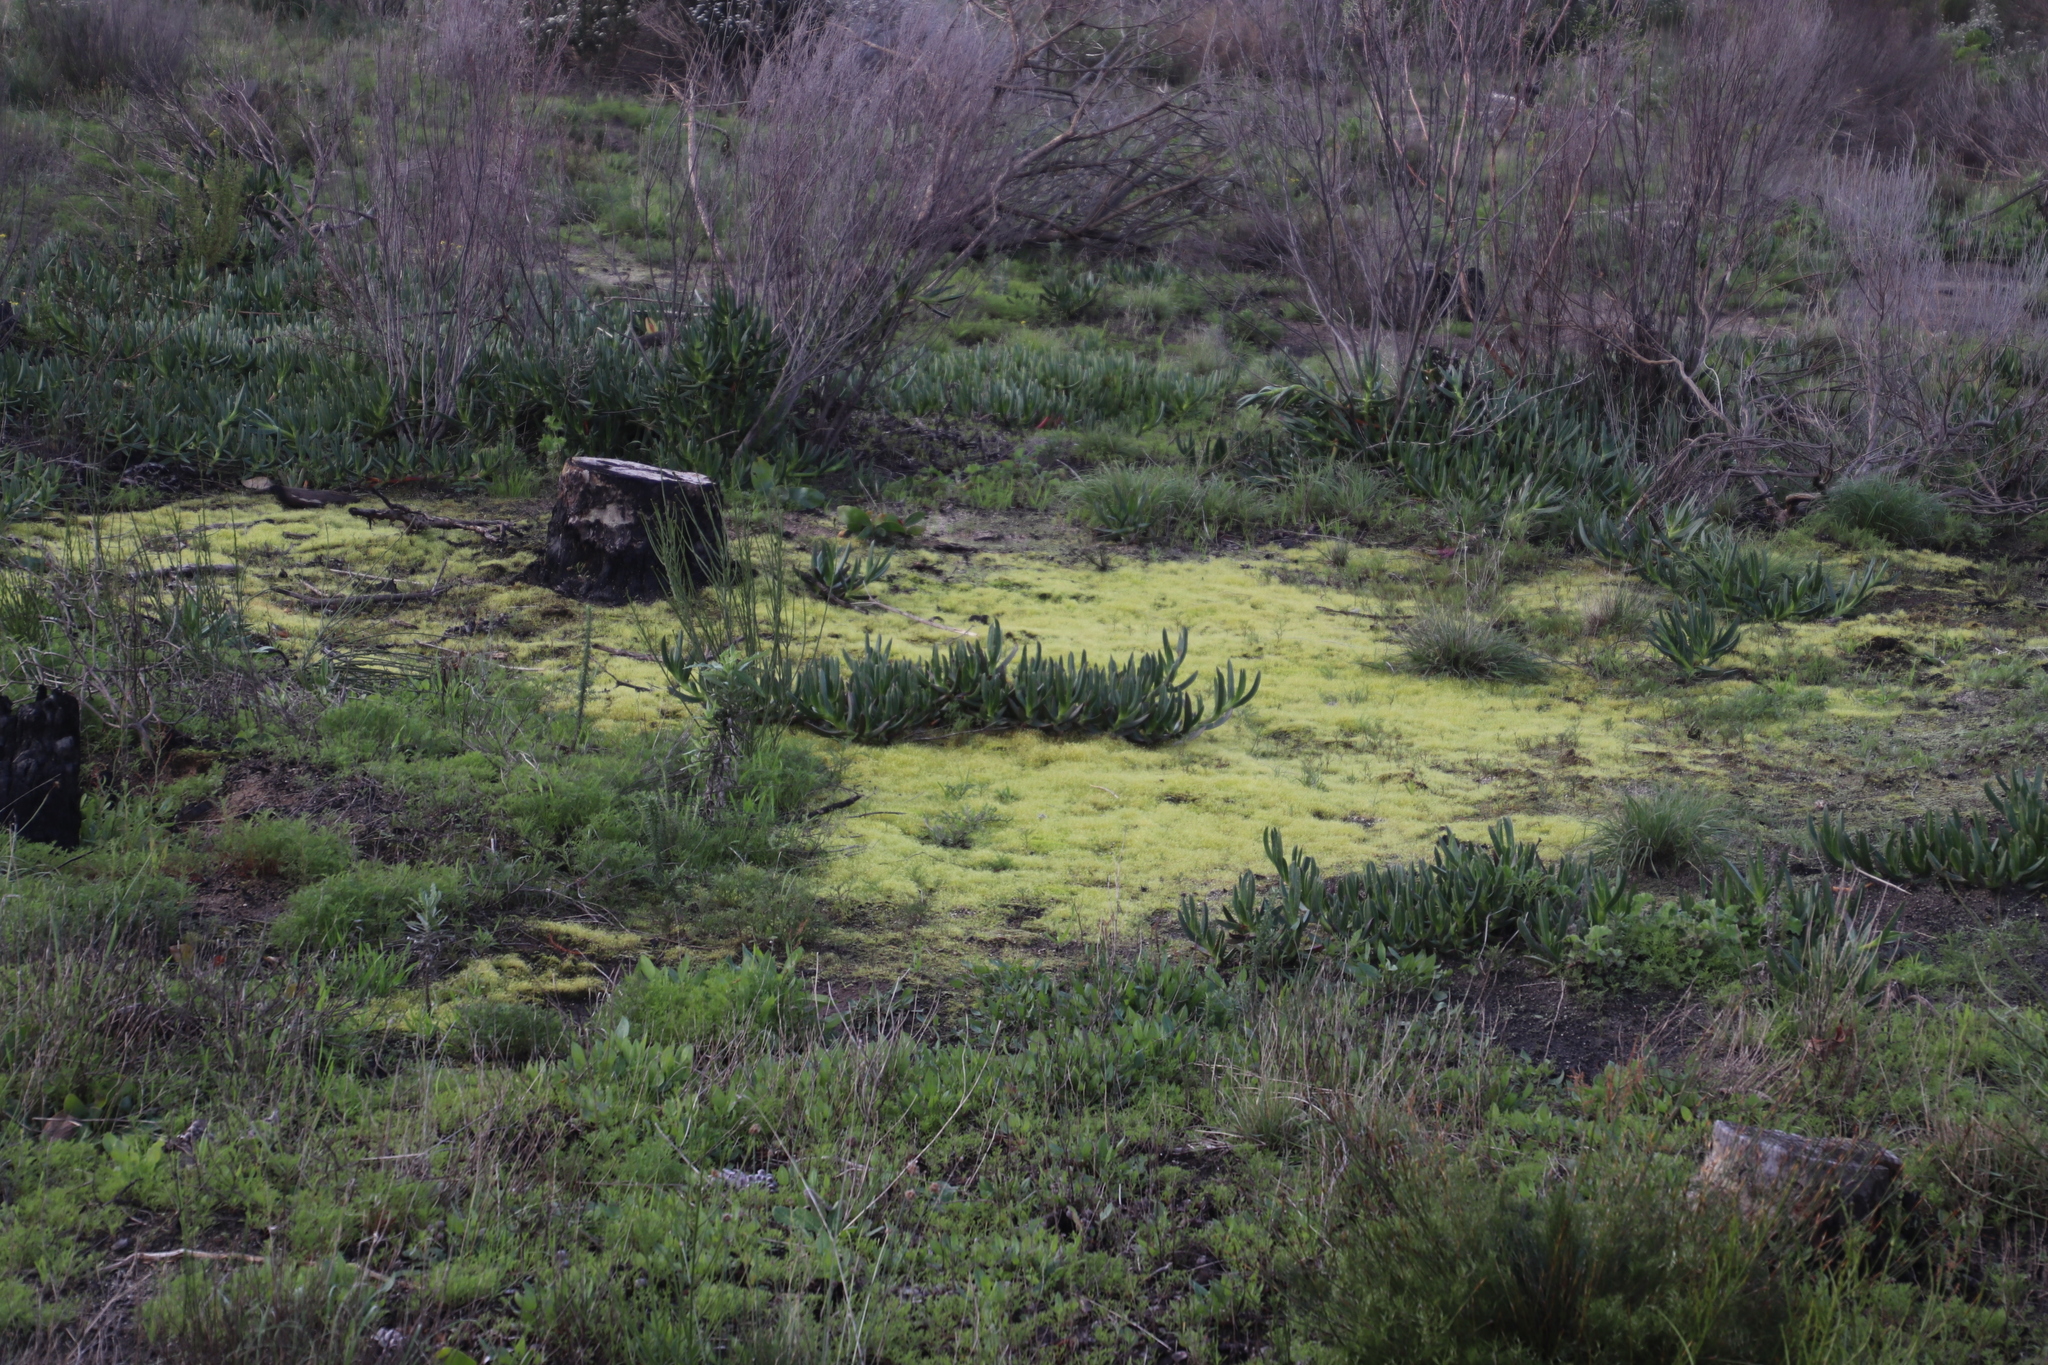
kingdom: Plantae
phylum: Bryophyta
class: Bryopsida
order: Funariales
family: Funariaceae
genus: Funaria
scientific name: Funaria hygrometrica
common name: Common cord moss
